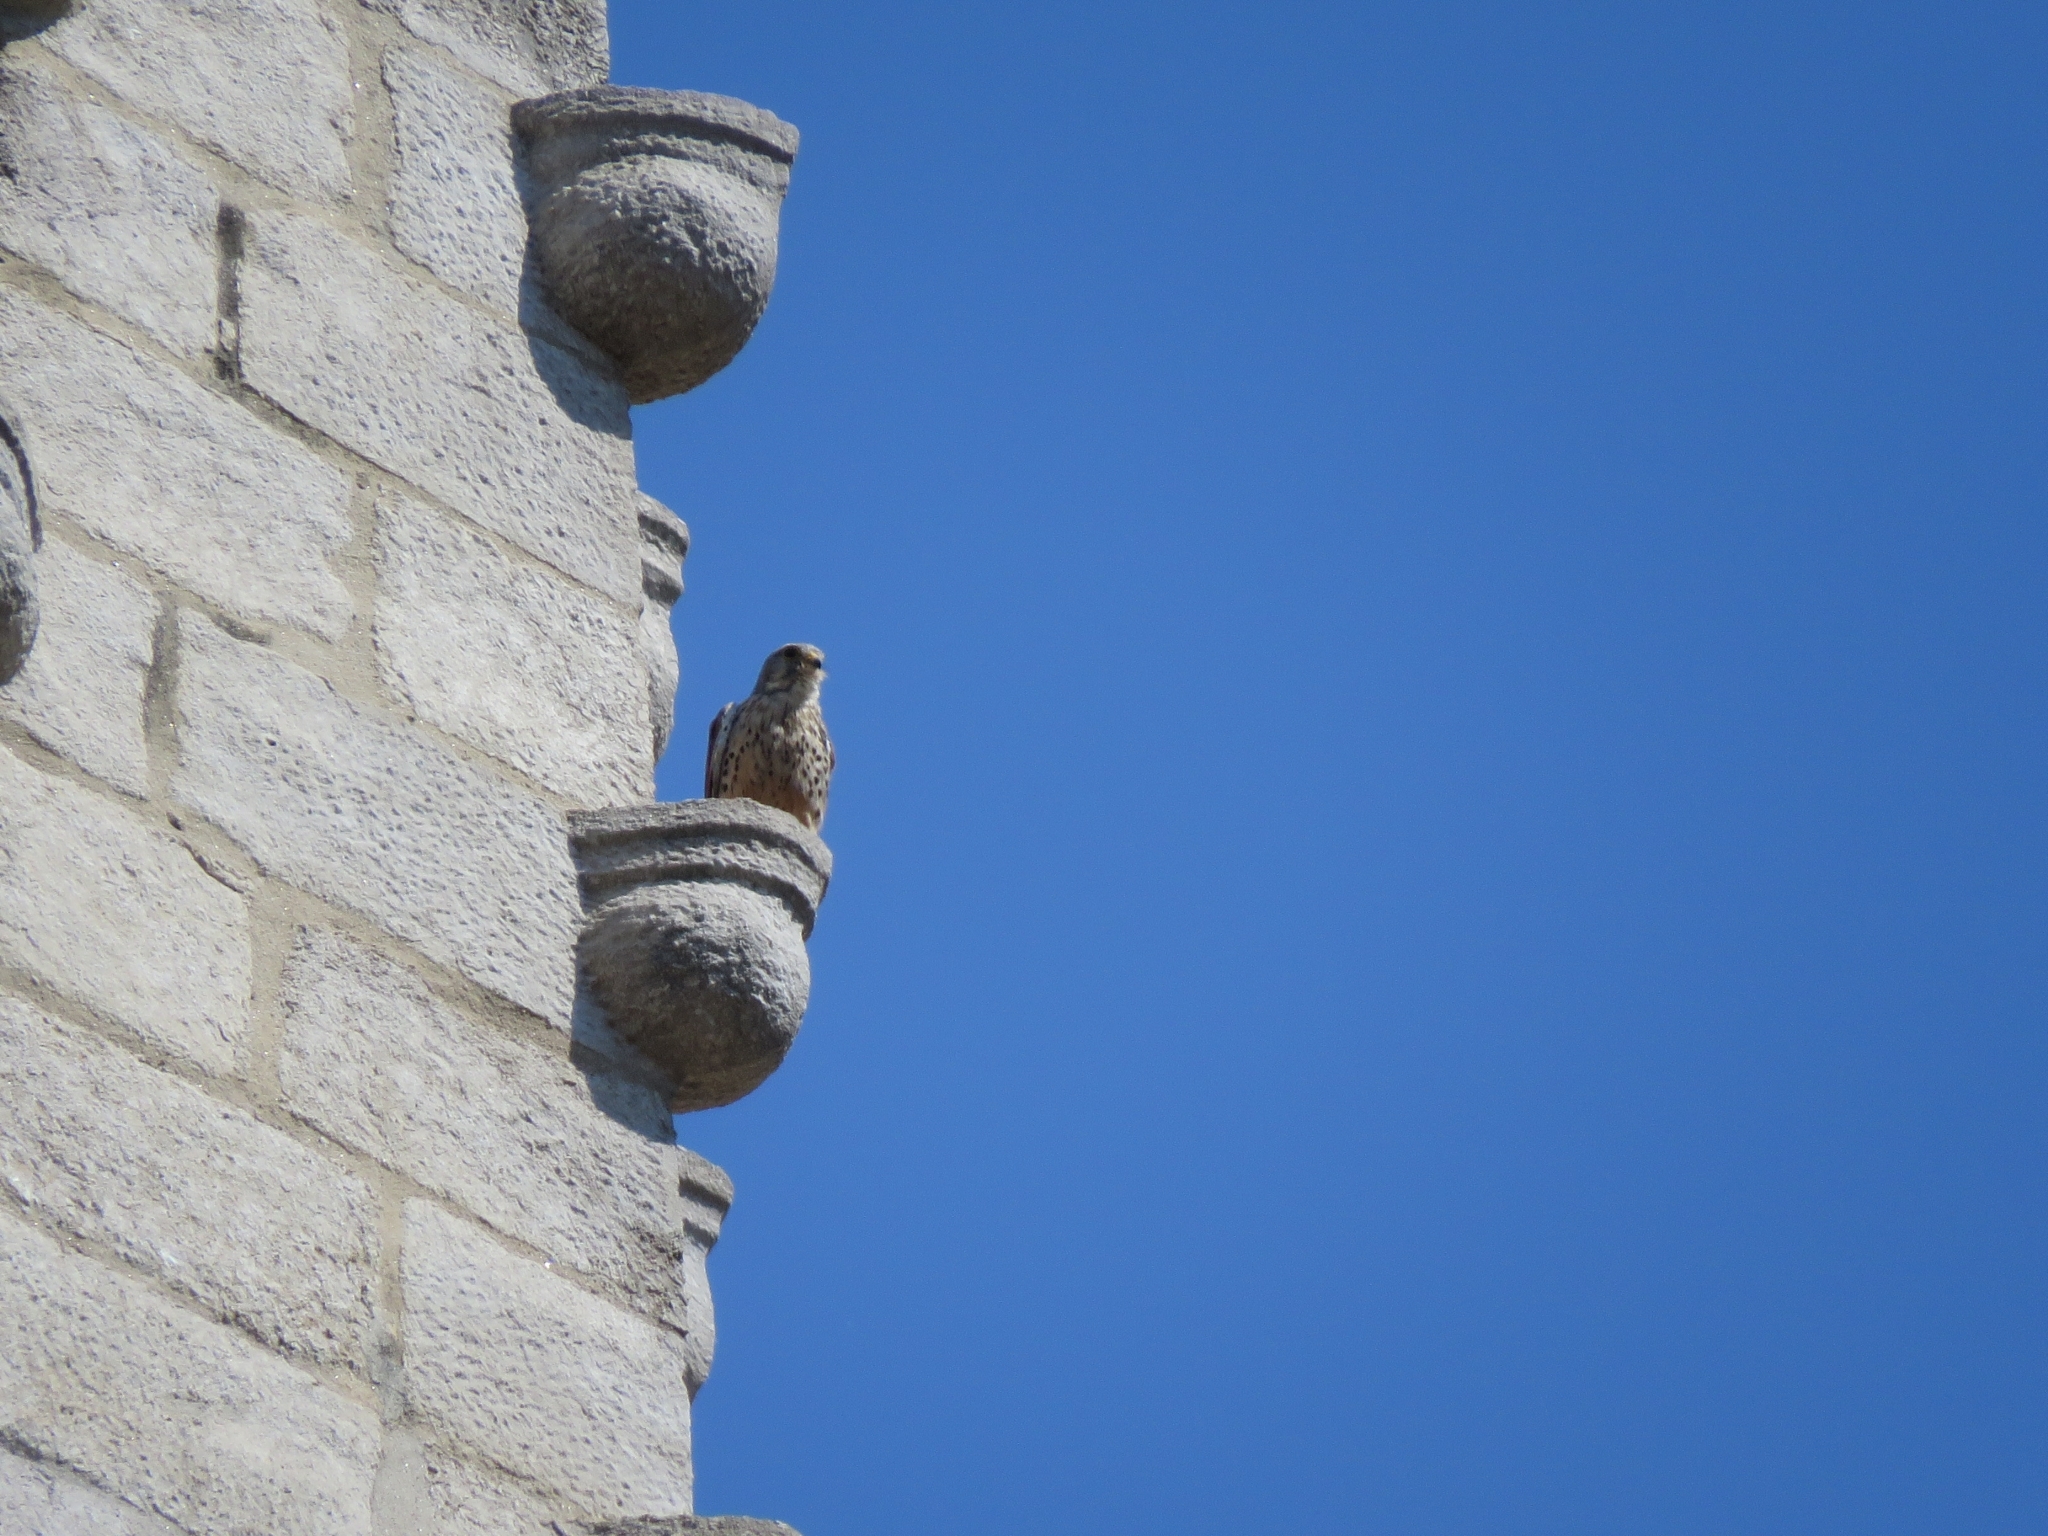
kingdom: Animalia
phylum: Chordata
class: Aves
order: Falconiformes
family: Falconidae
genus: Falco
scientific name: Falco tinnunculus
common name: Common kestrel
